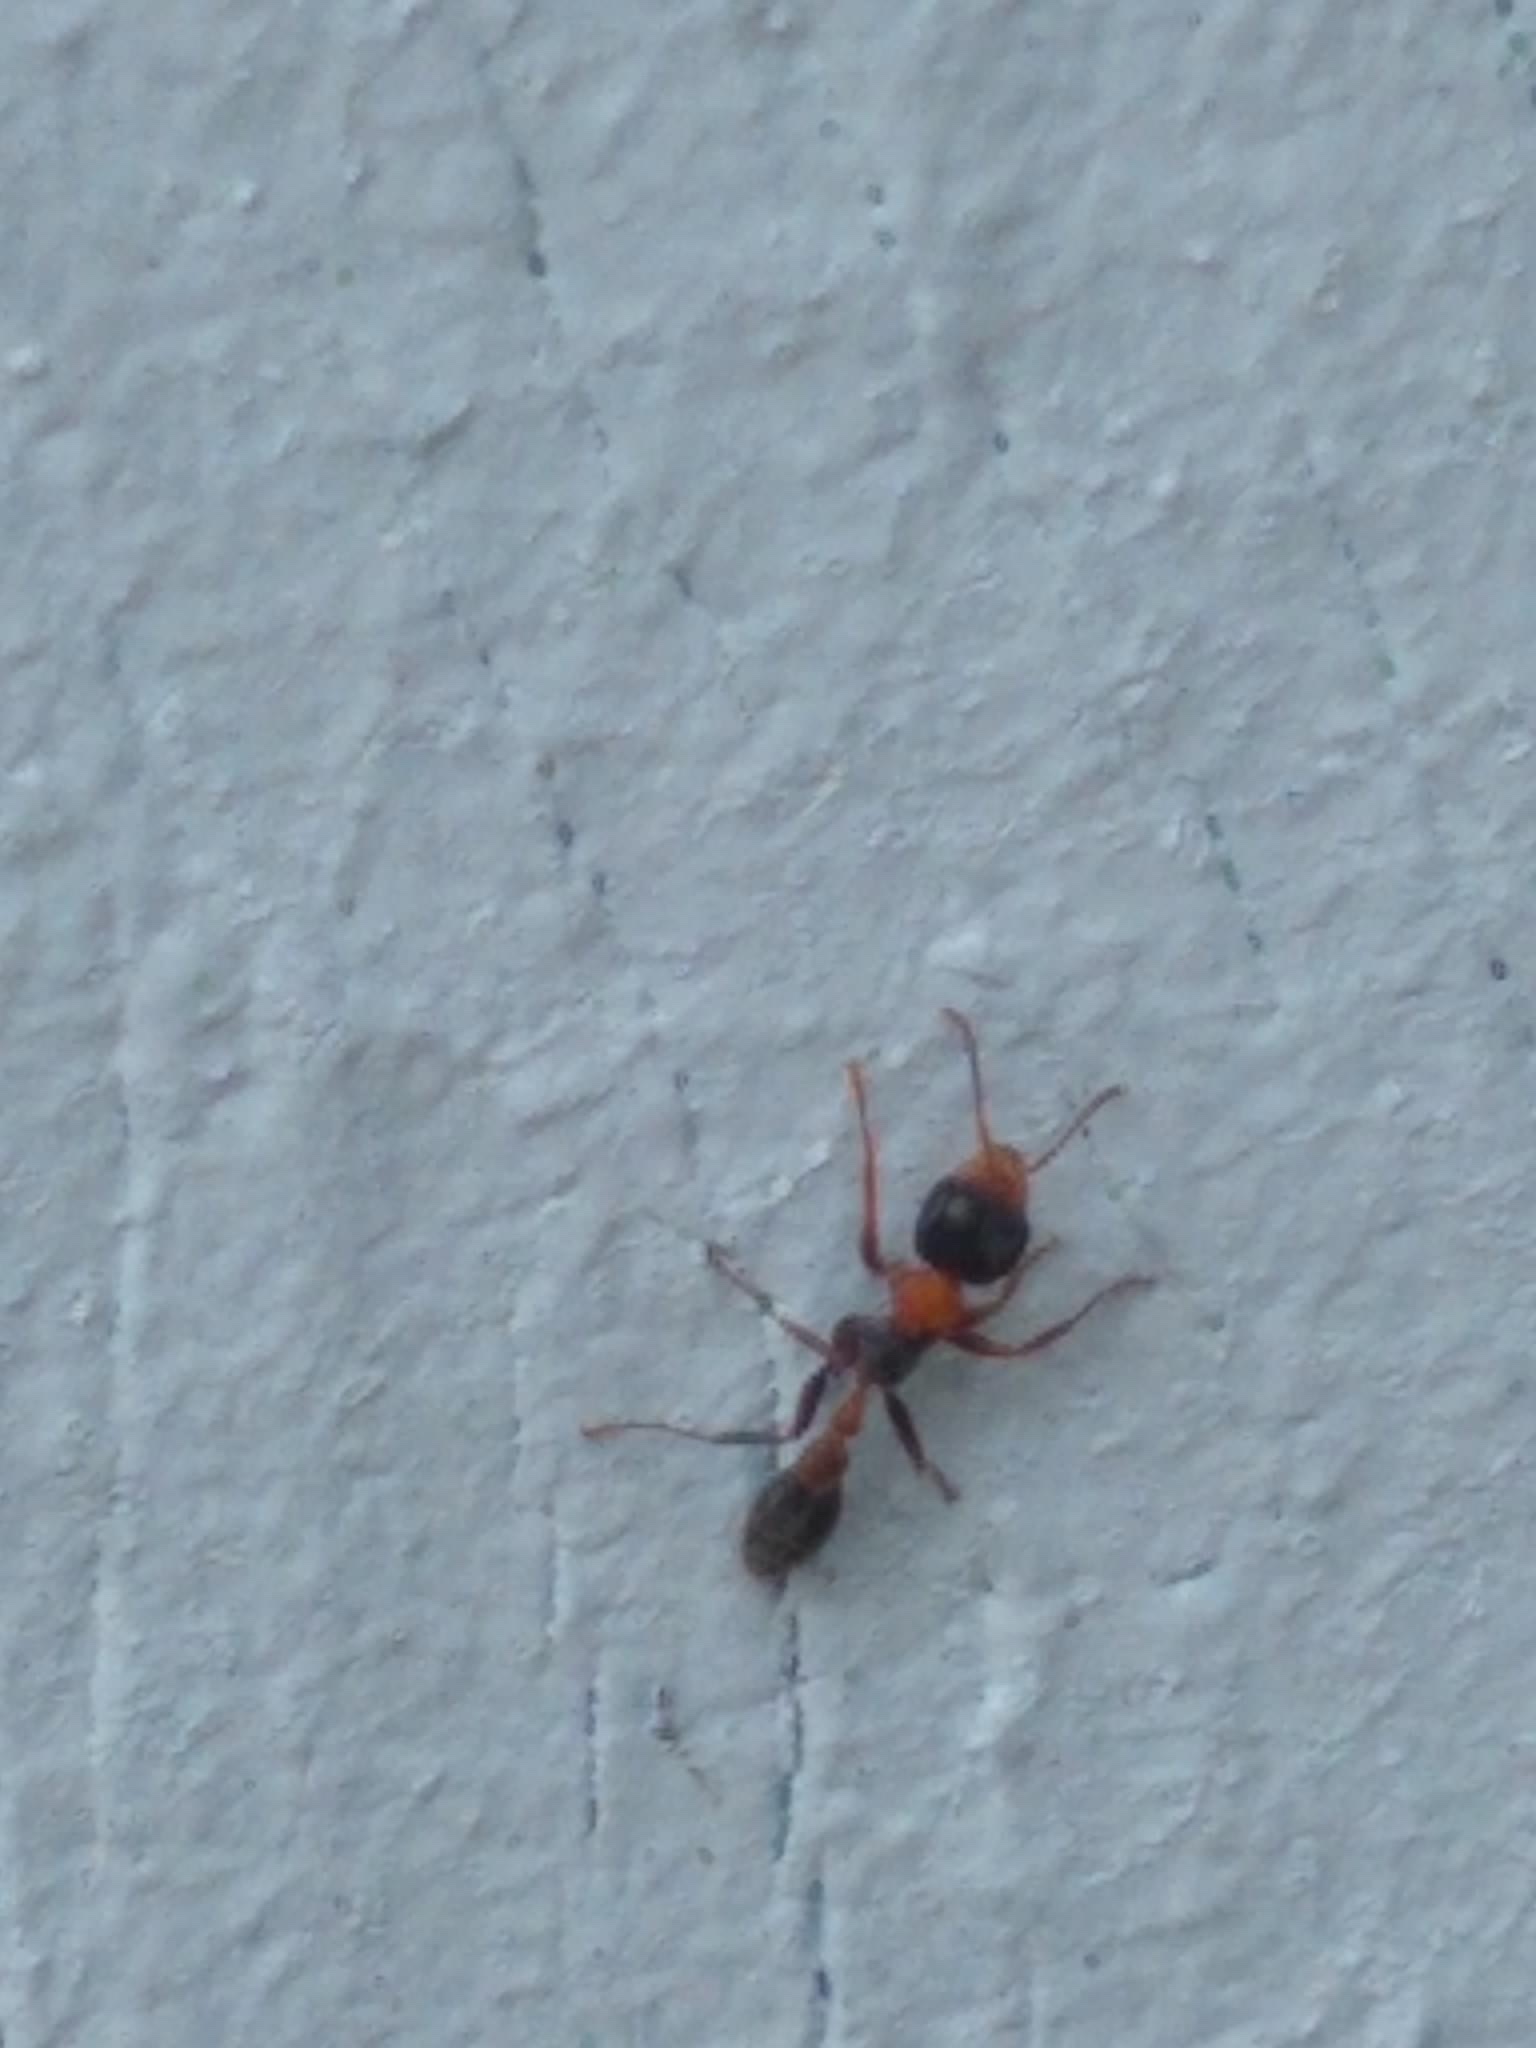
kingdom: Animalia
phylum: Arthropoda
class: Insecta
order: Hymenoptera
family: Formicidae
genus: Pseudomyrmex
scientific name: Pseudomyrmex gracilis
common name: Graceful twig ant
